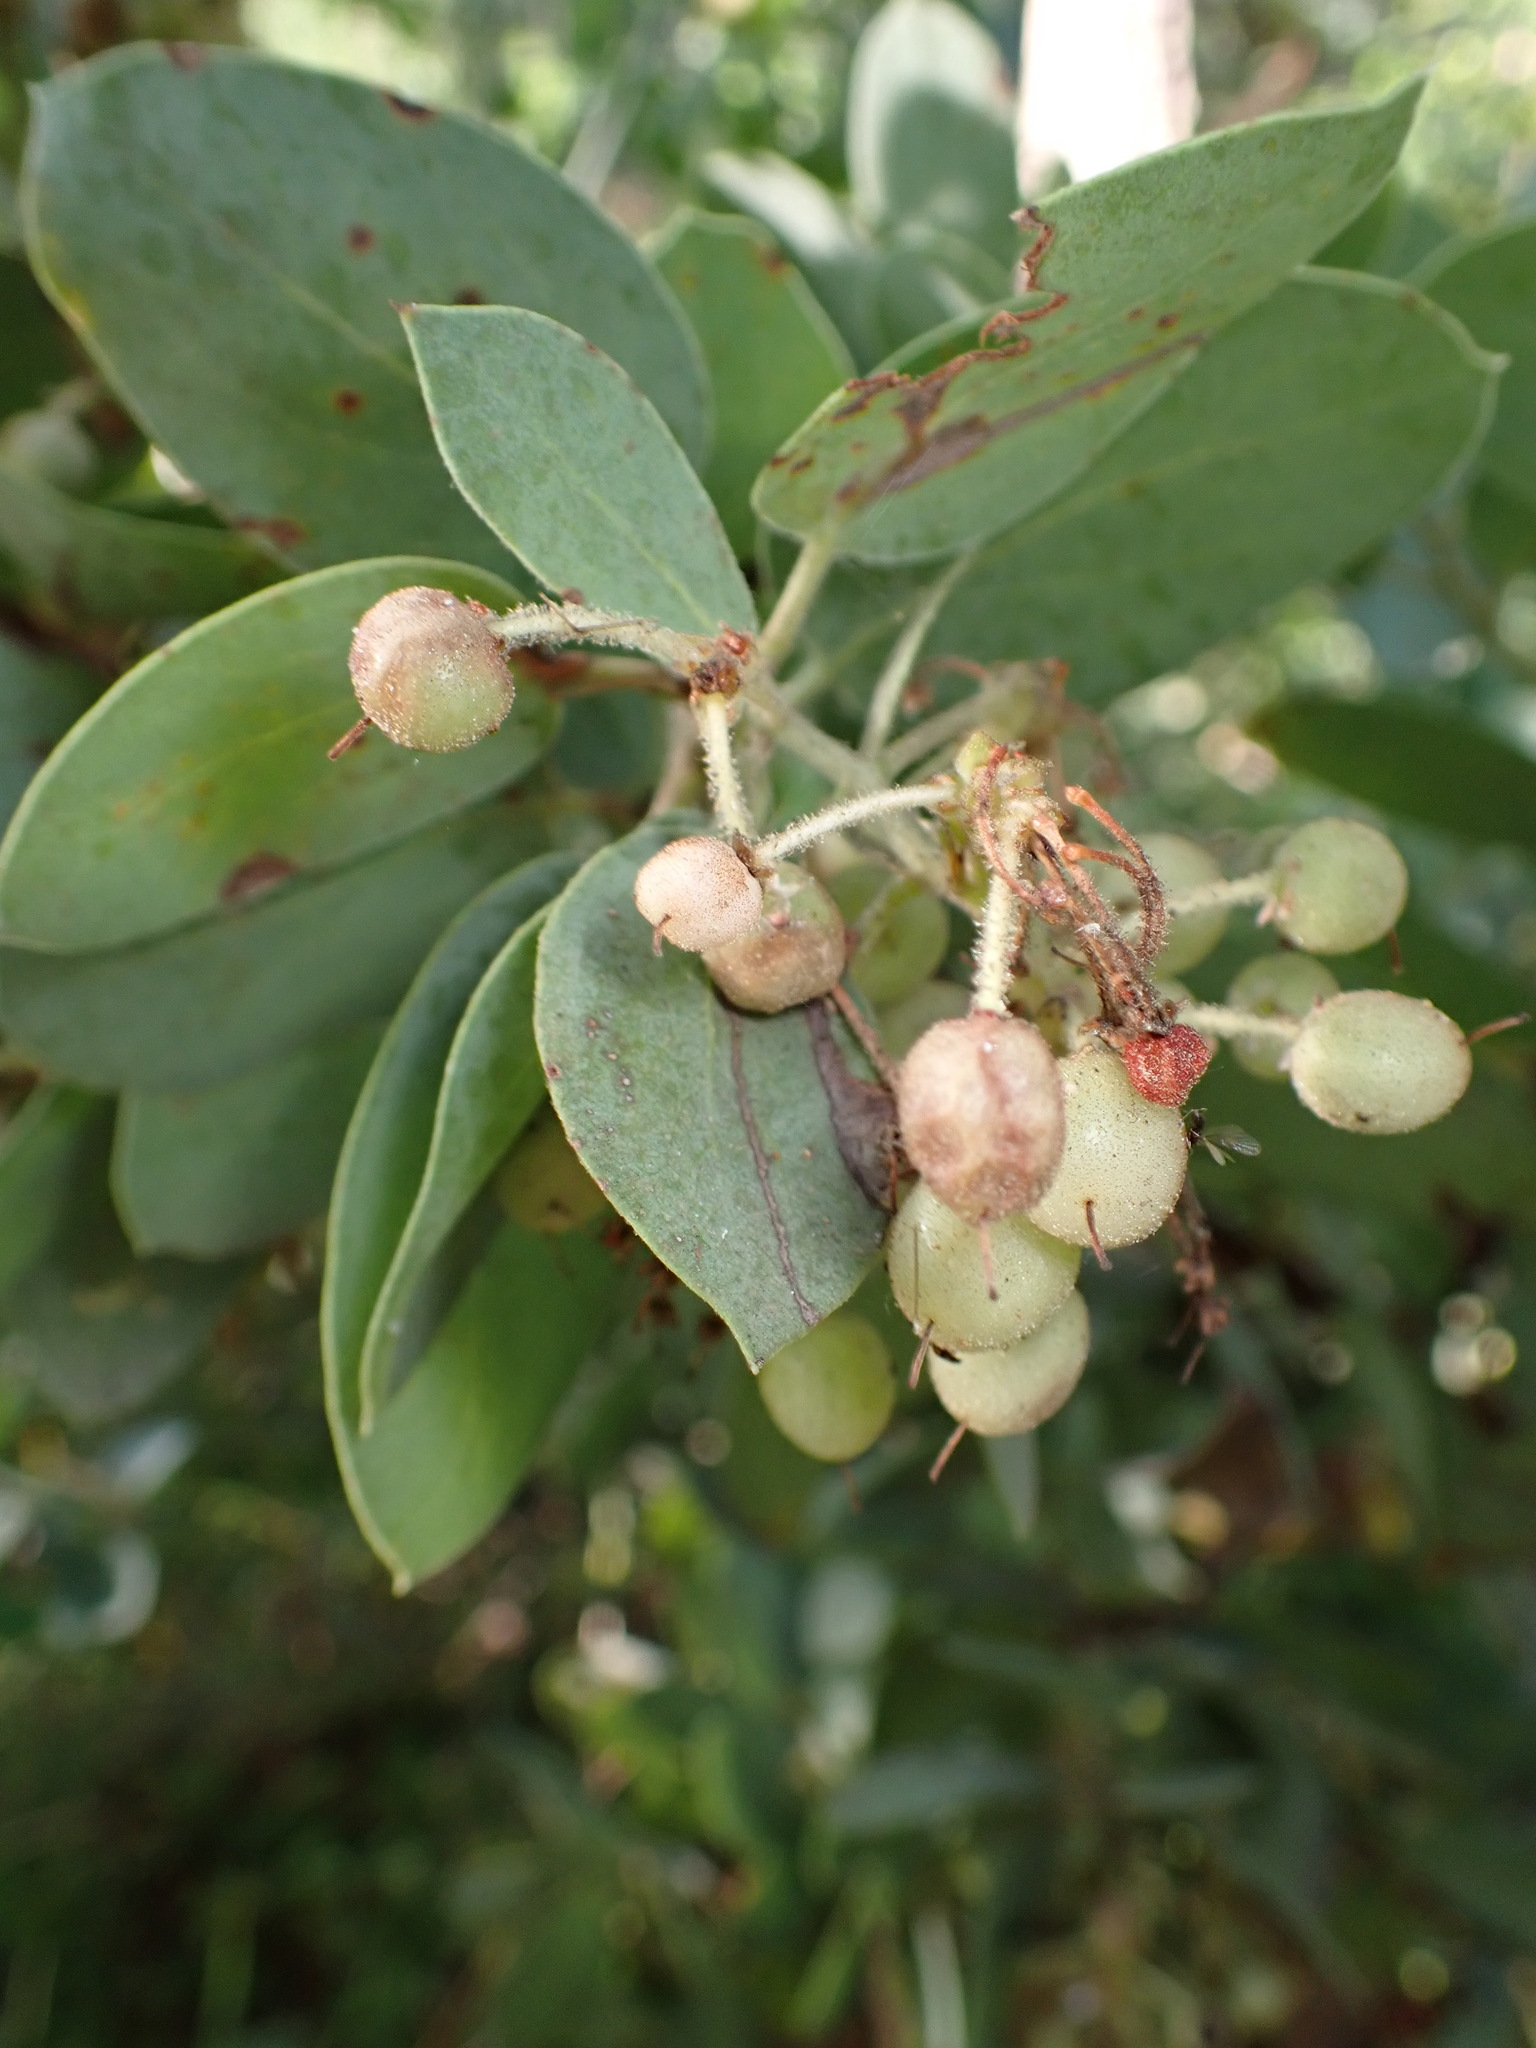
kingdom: Plantae
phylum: Tracheophyta
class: Magnoliopsida
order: Ericales
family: Ericaceae
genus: Arctostaphylos
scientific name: Arctostaphylos viscida
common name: White-leaf manzanita
